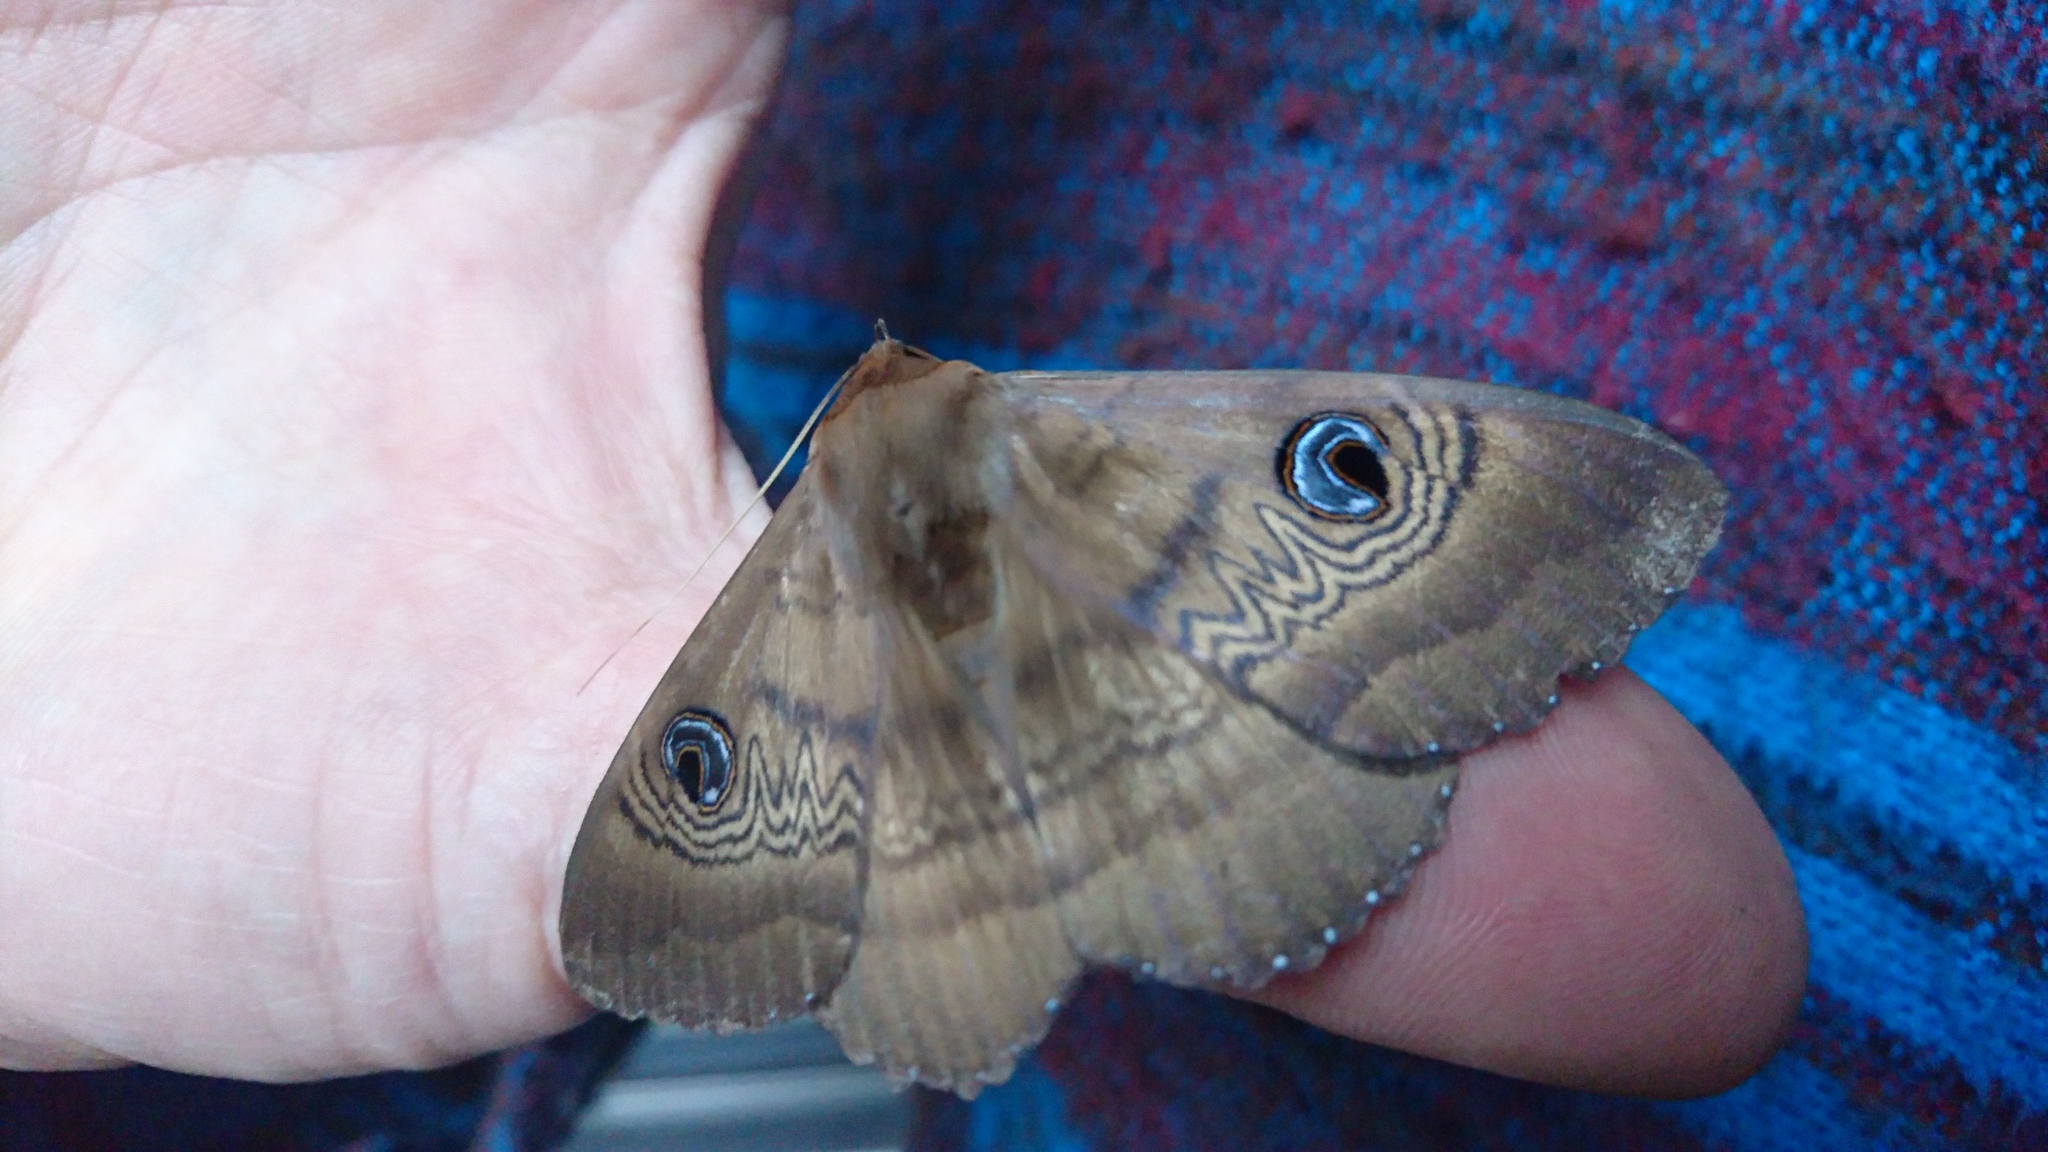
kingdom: Animalia
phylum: Arthropoda
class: Insecta
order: Lepidoptera
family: Erebidae
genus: Dasypodia
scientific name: Dasypodia selenophora
